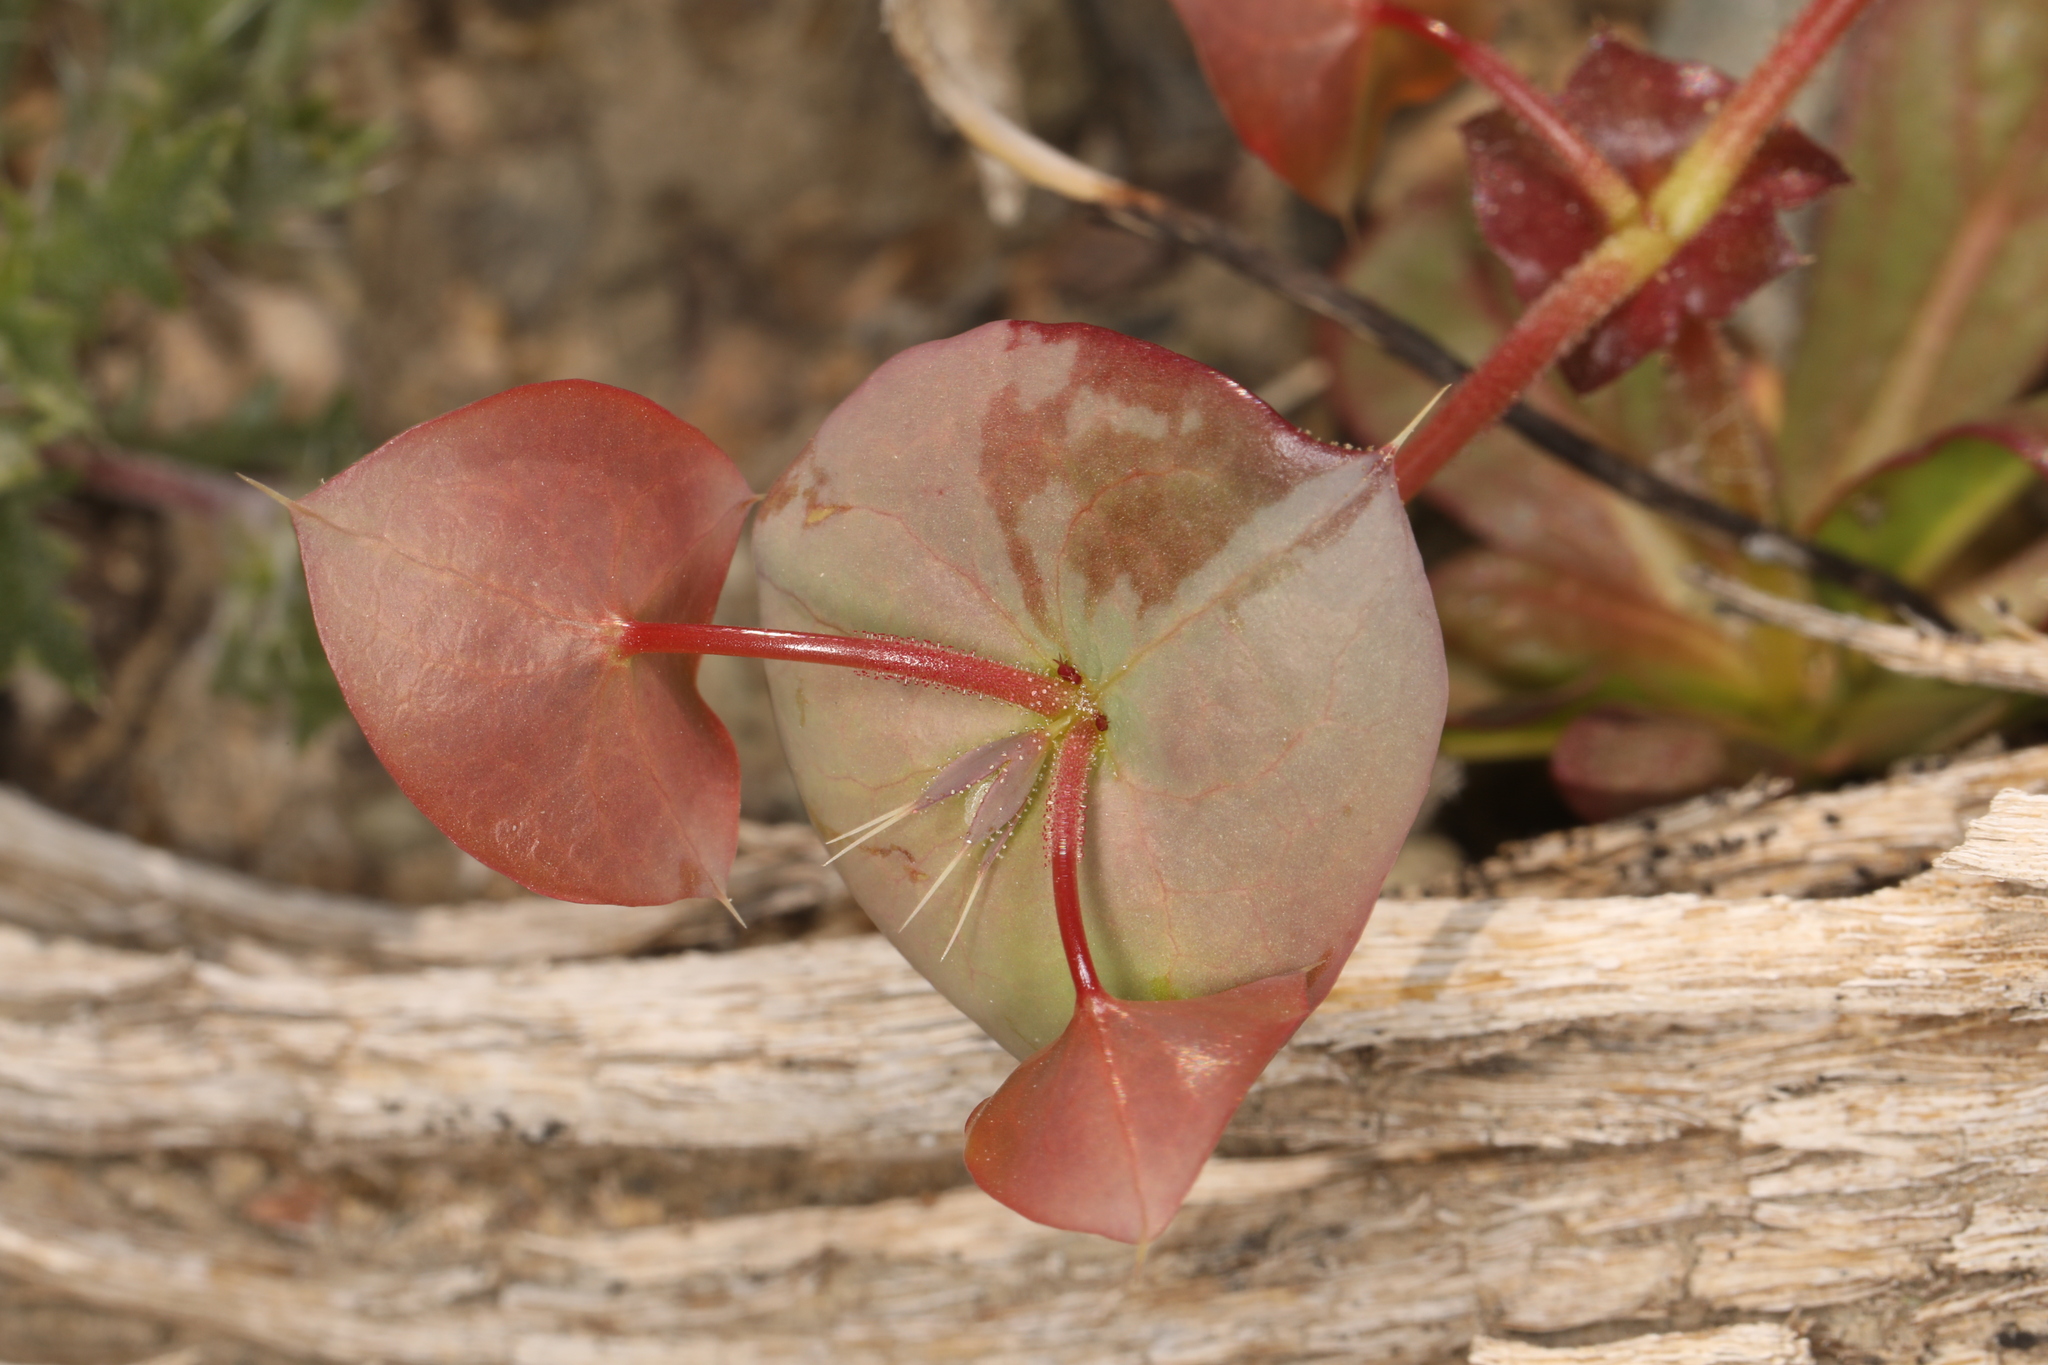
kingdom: Plantae
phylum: Tracheophyta
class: Magnoliopsida
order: Caryophyllales
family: Polygonaceae
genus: Oxytheca
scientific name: Oxytheca perfoliata
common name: Round-leaf puncturebract
